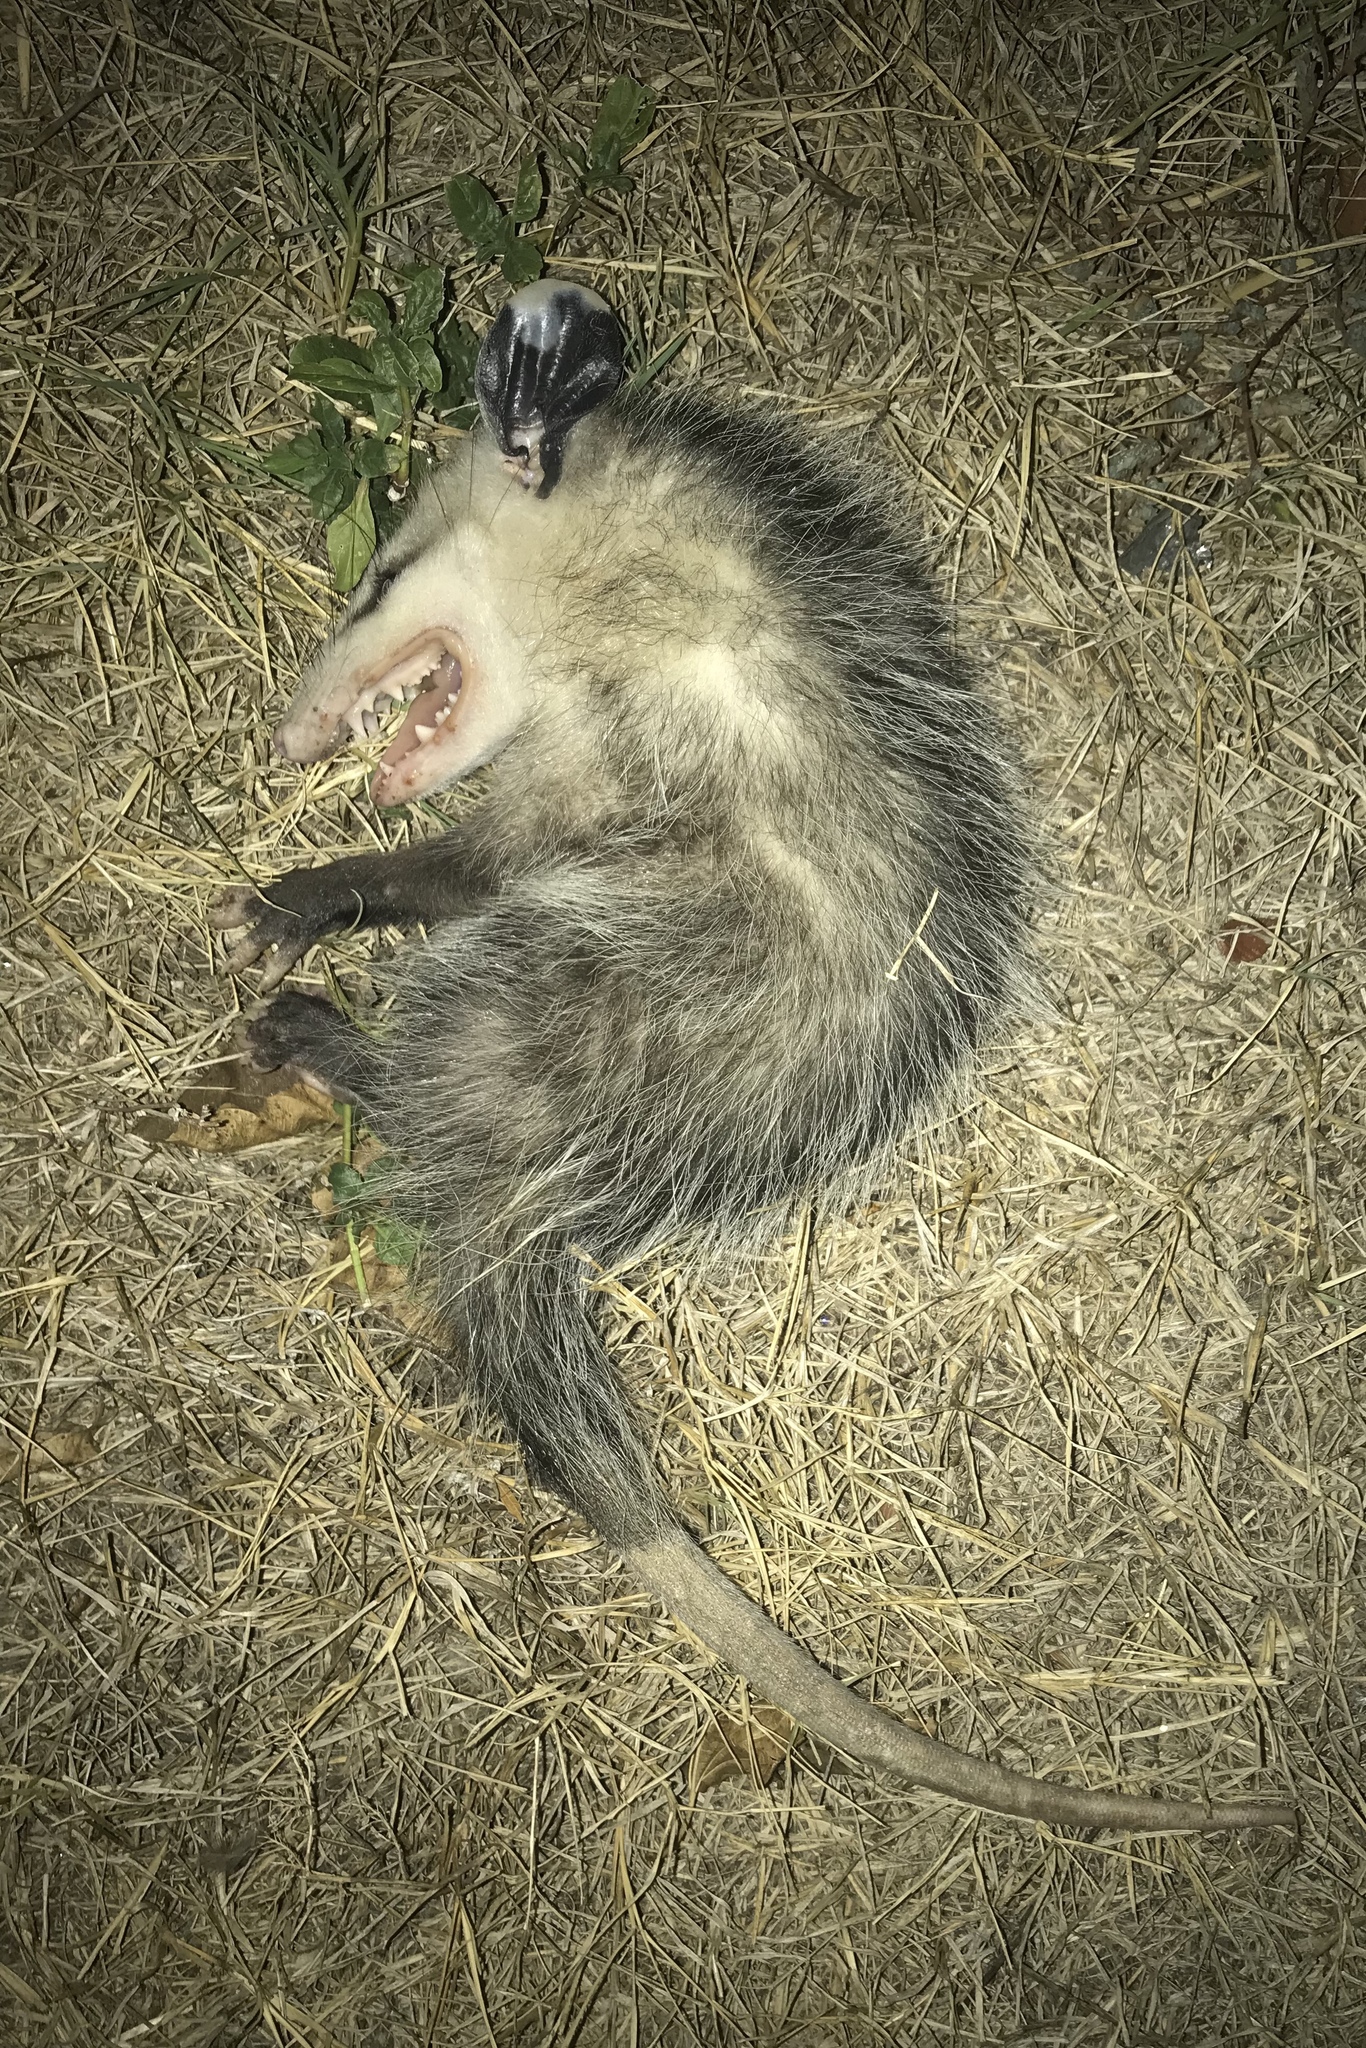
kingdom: Animalia
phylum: Chordata
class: Mammalia
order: Didelphimorphia
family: Didelphidae
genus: Didelphis
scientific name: Didelphis virginiana
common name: Virginia opossum
